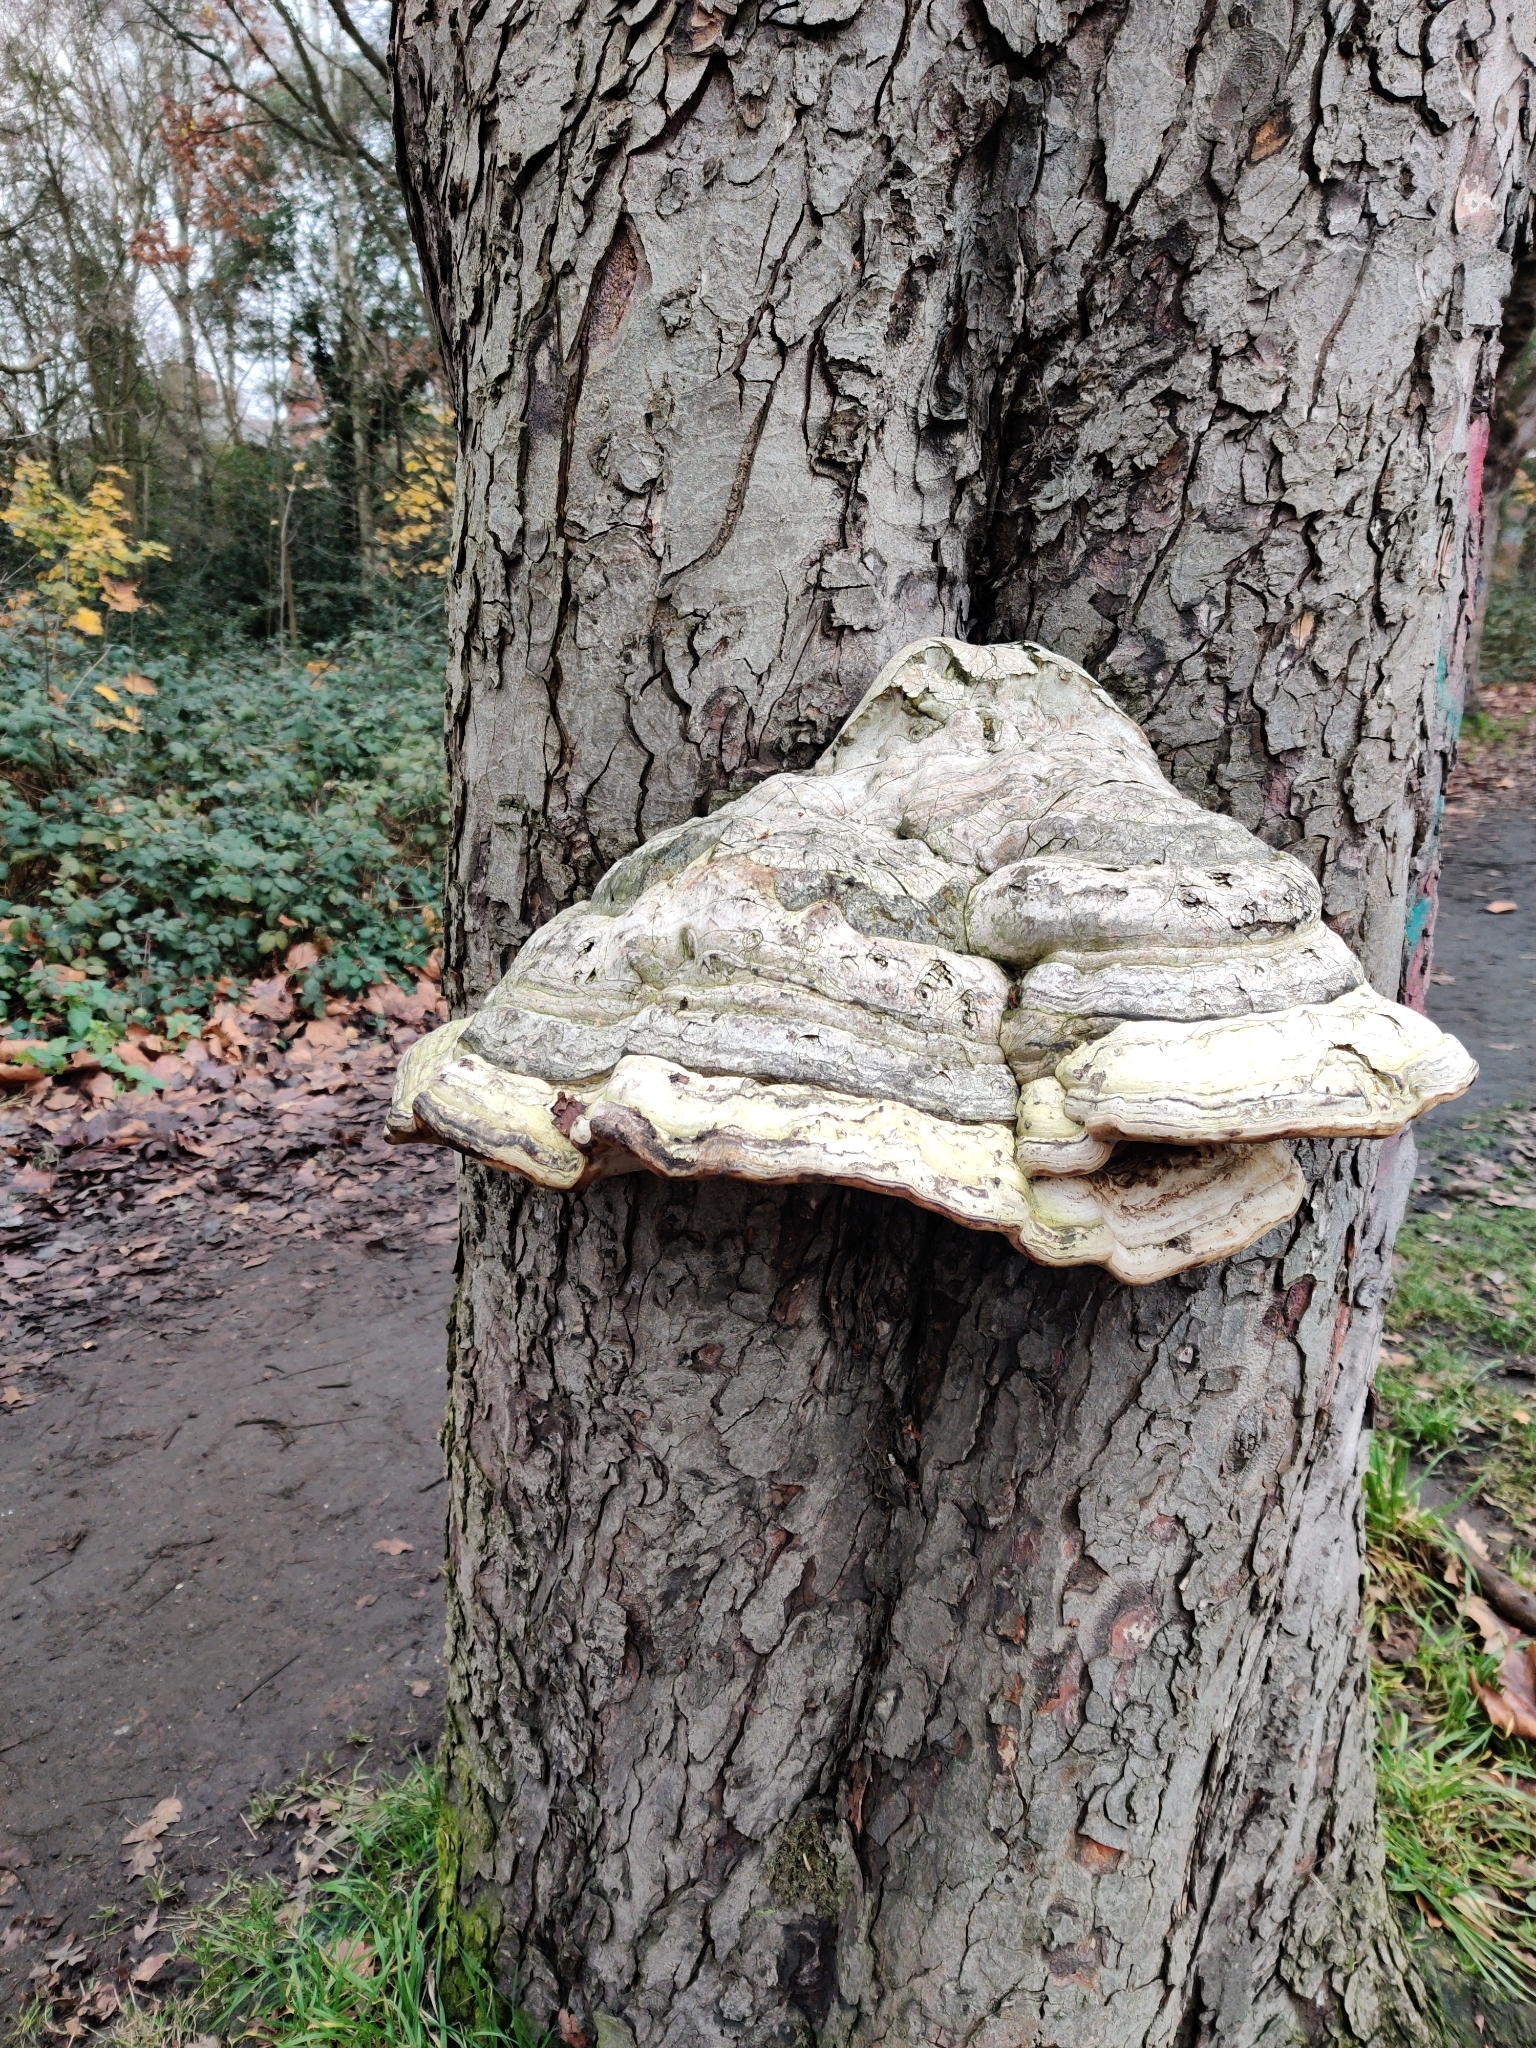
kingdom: Fungi
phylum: Basidiomycota
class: Agaricomycetes
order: Polyporales
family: Polyporaceae
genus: Fomes
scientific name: Fomes fomentarius
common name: Hoof fungus
